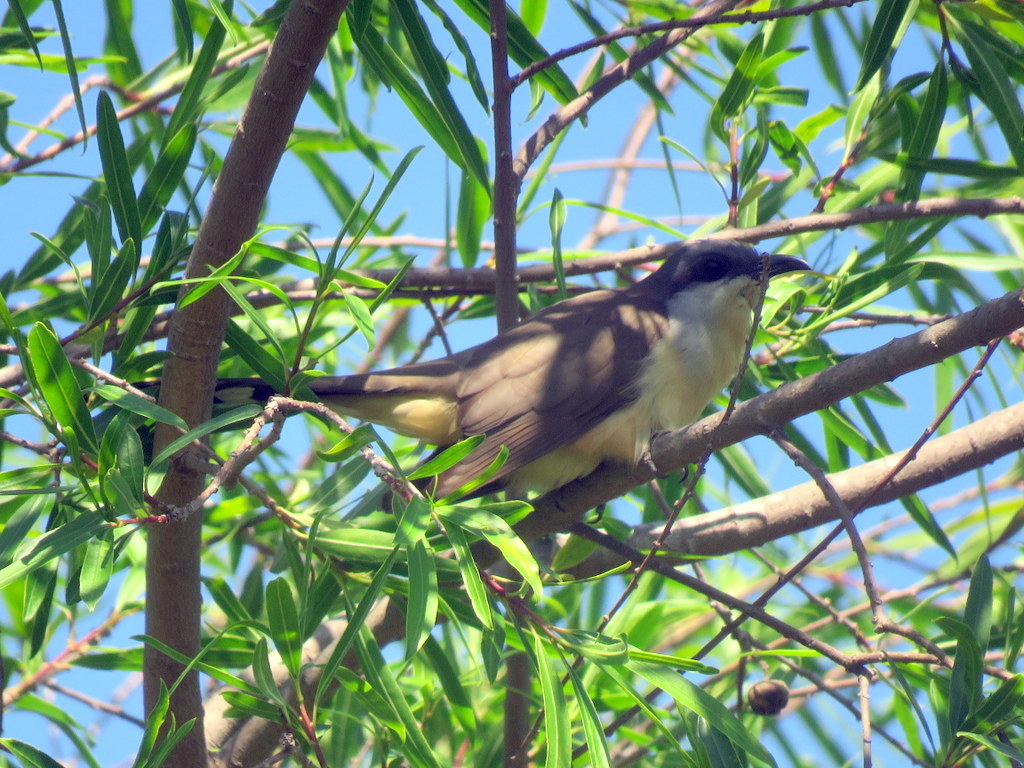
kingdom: Animalia
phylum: Chordata
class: Aves
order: Cuculiformes
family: Cuculidae
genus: Coccyzus
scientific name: Coccyzus melacoryphus
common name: Dark-billed cuckoo
